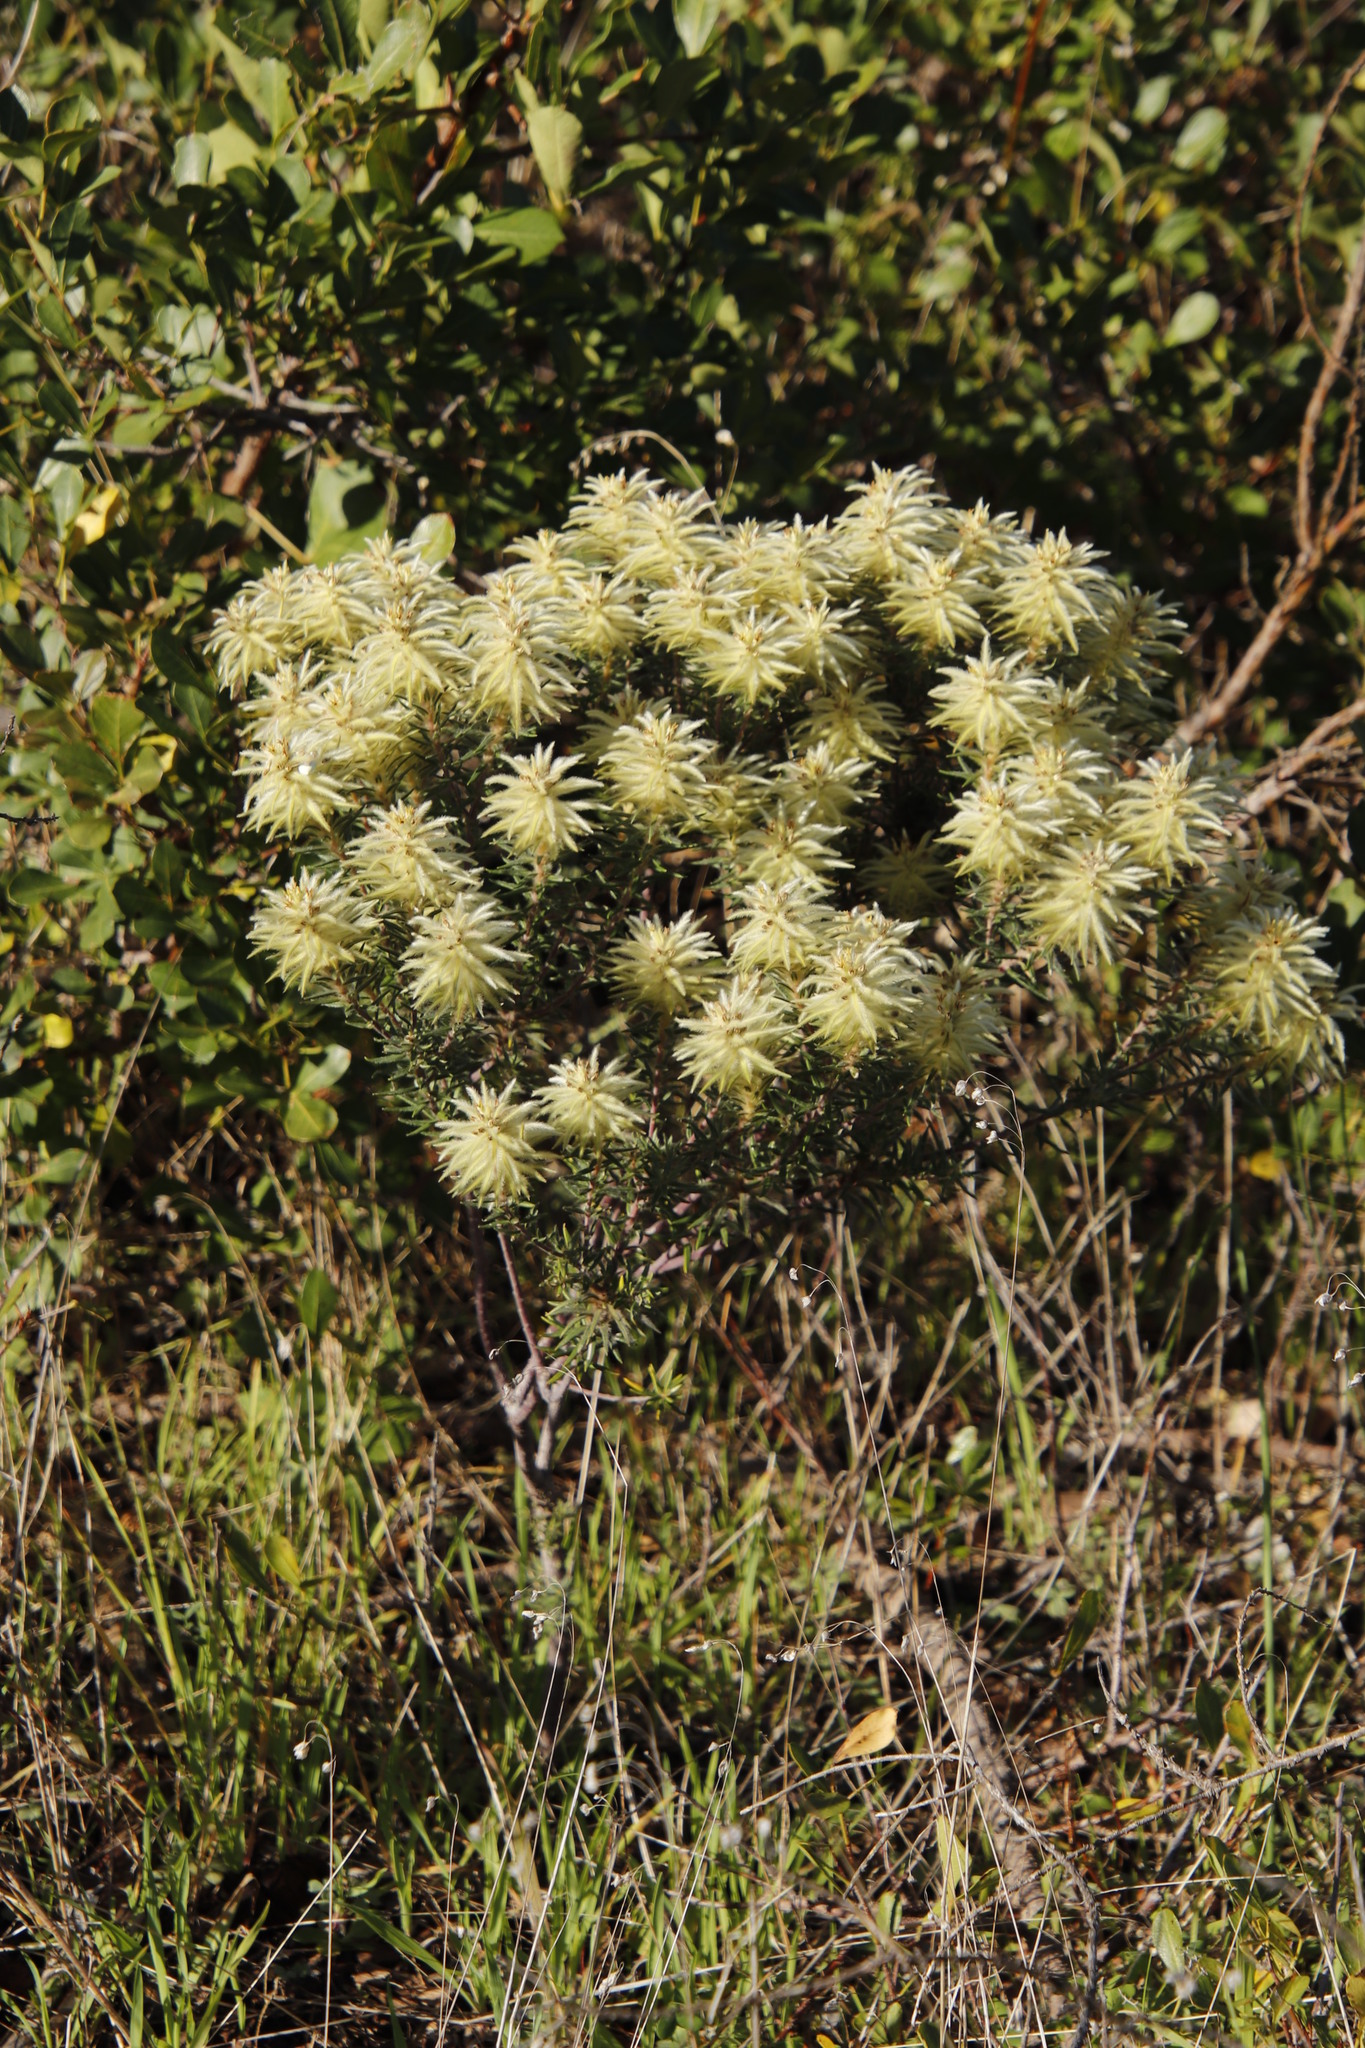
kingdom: Plantae
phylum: Tracheophyta
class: Magnoliopsida
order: Rosales
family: Rhamnaceae
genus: Phylica
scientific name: Phylica plumosa
